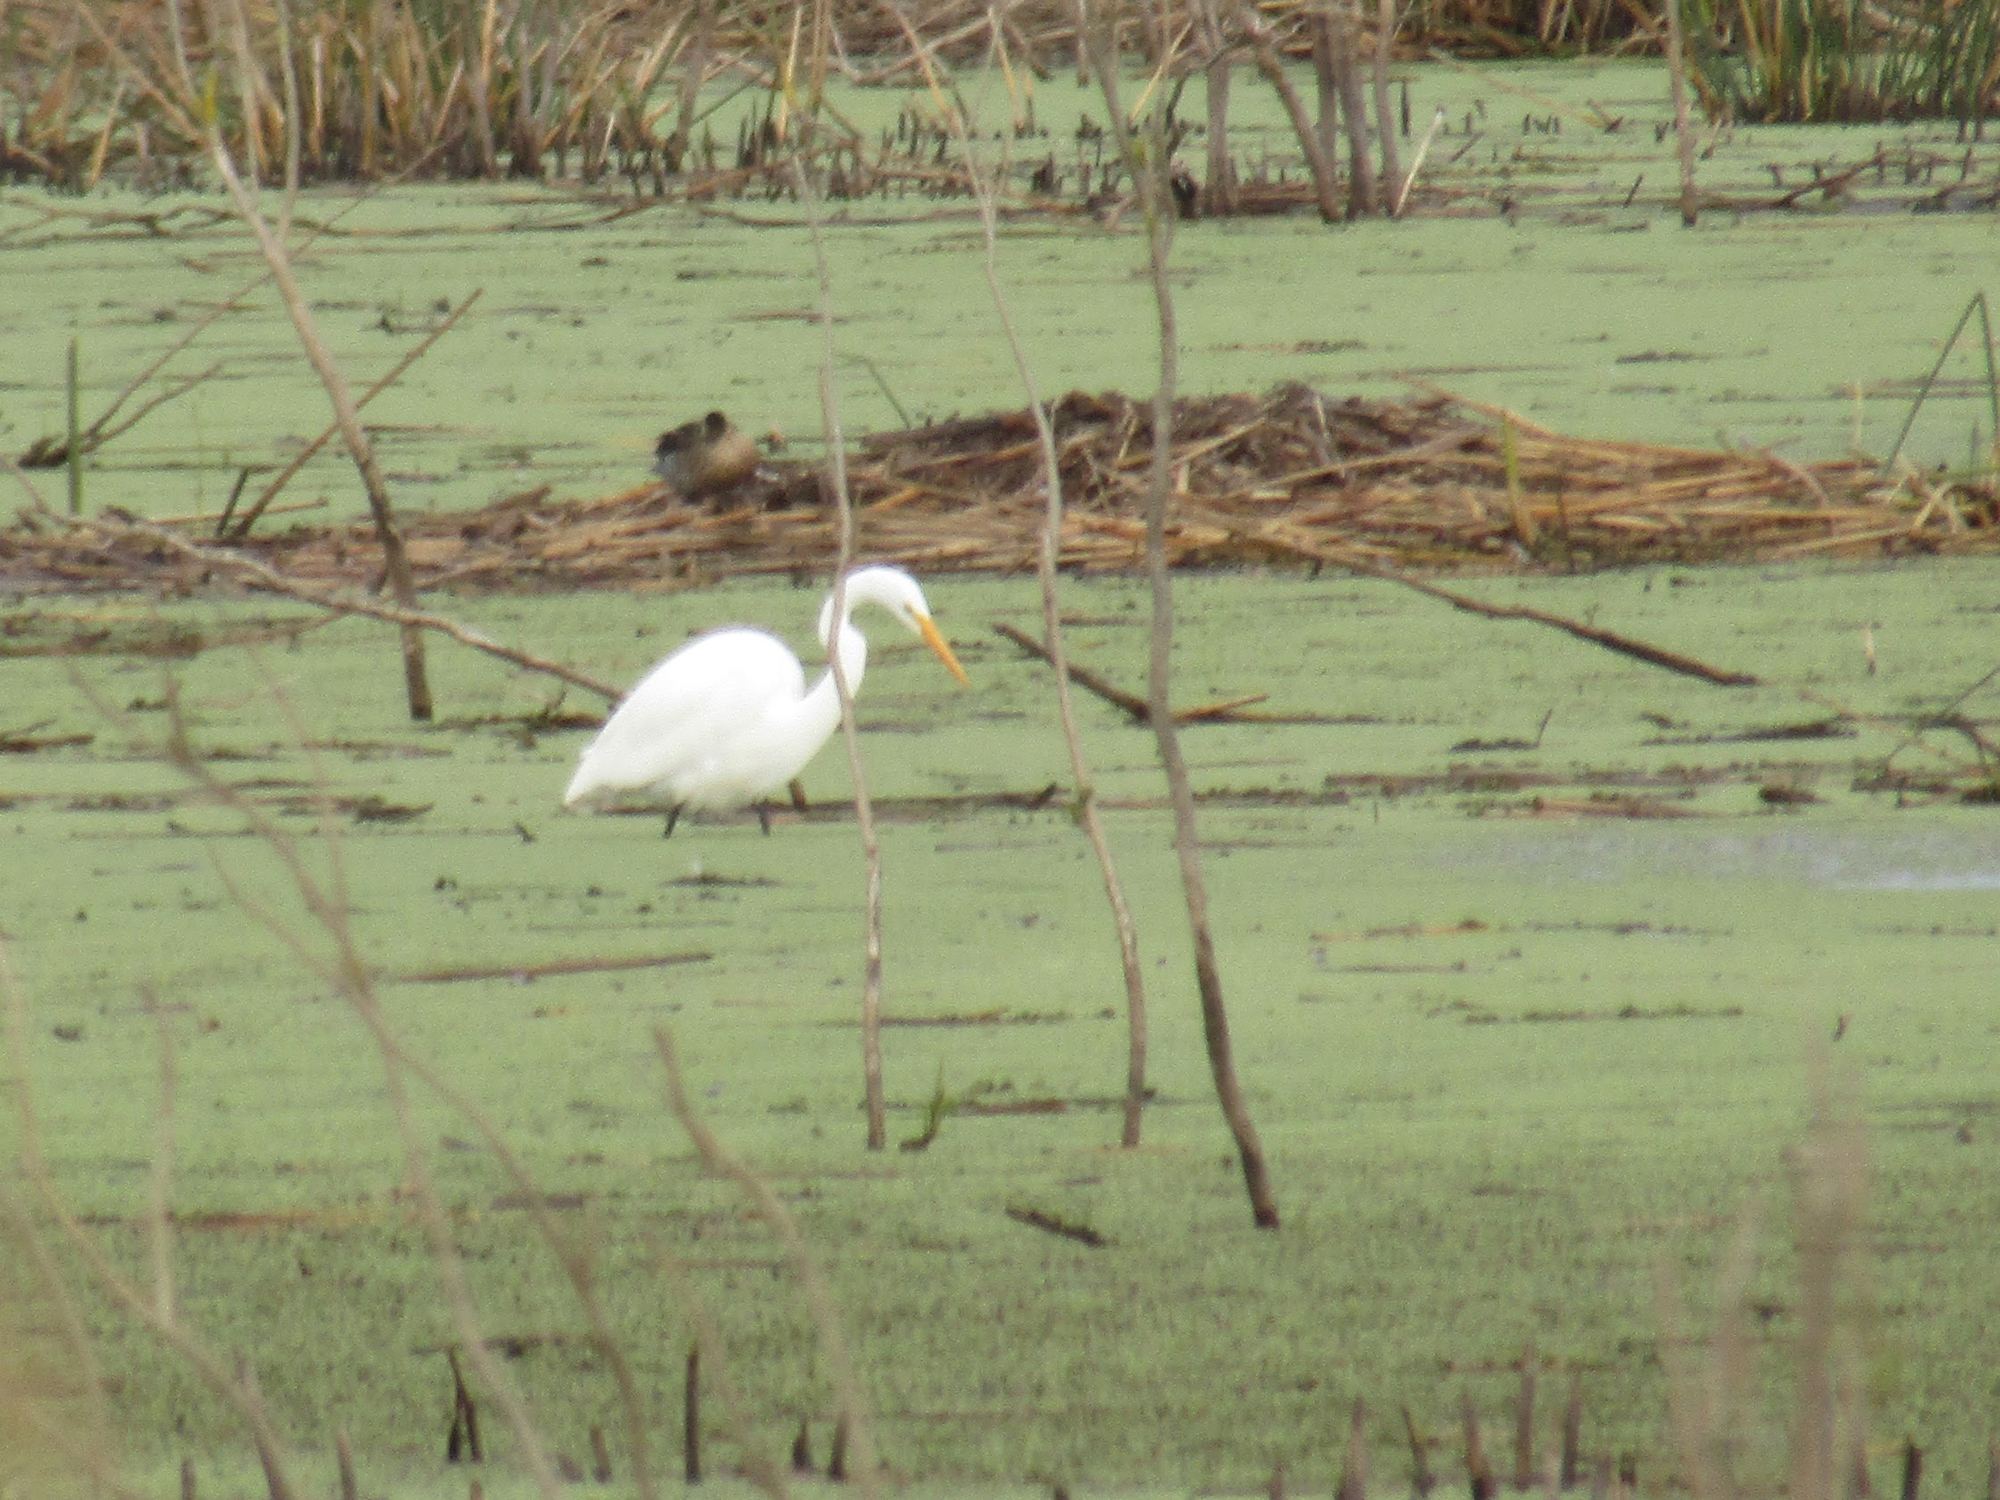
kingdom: Animalia
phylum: Chordata
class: Aves
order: Pelecaniformes
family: Ardeidae
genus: Ardea
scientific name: Ardea alba
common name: Great egret
